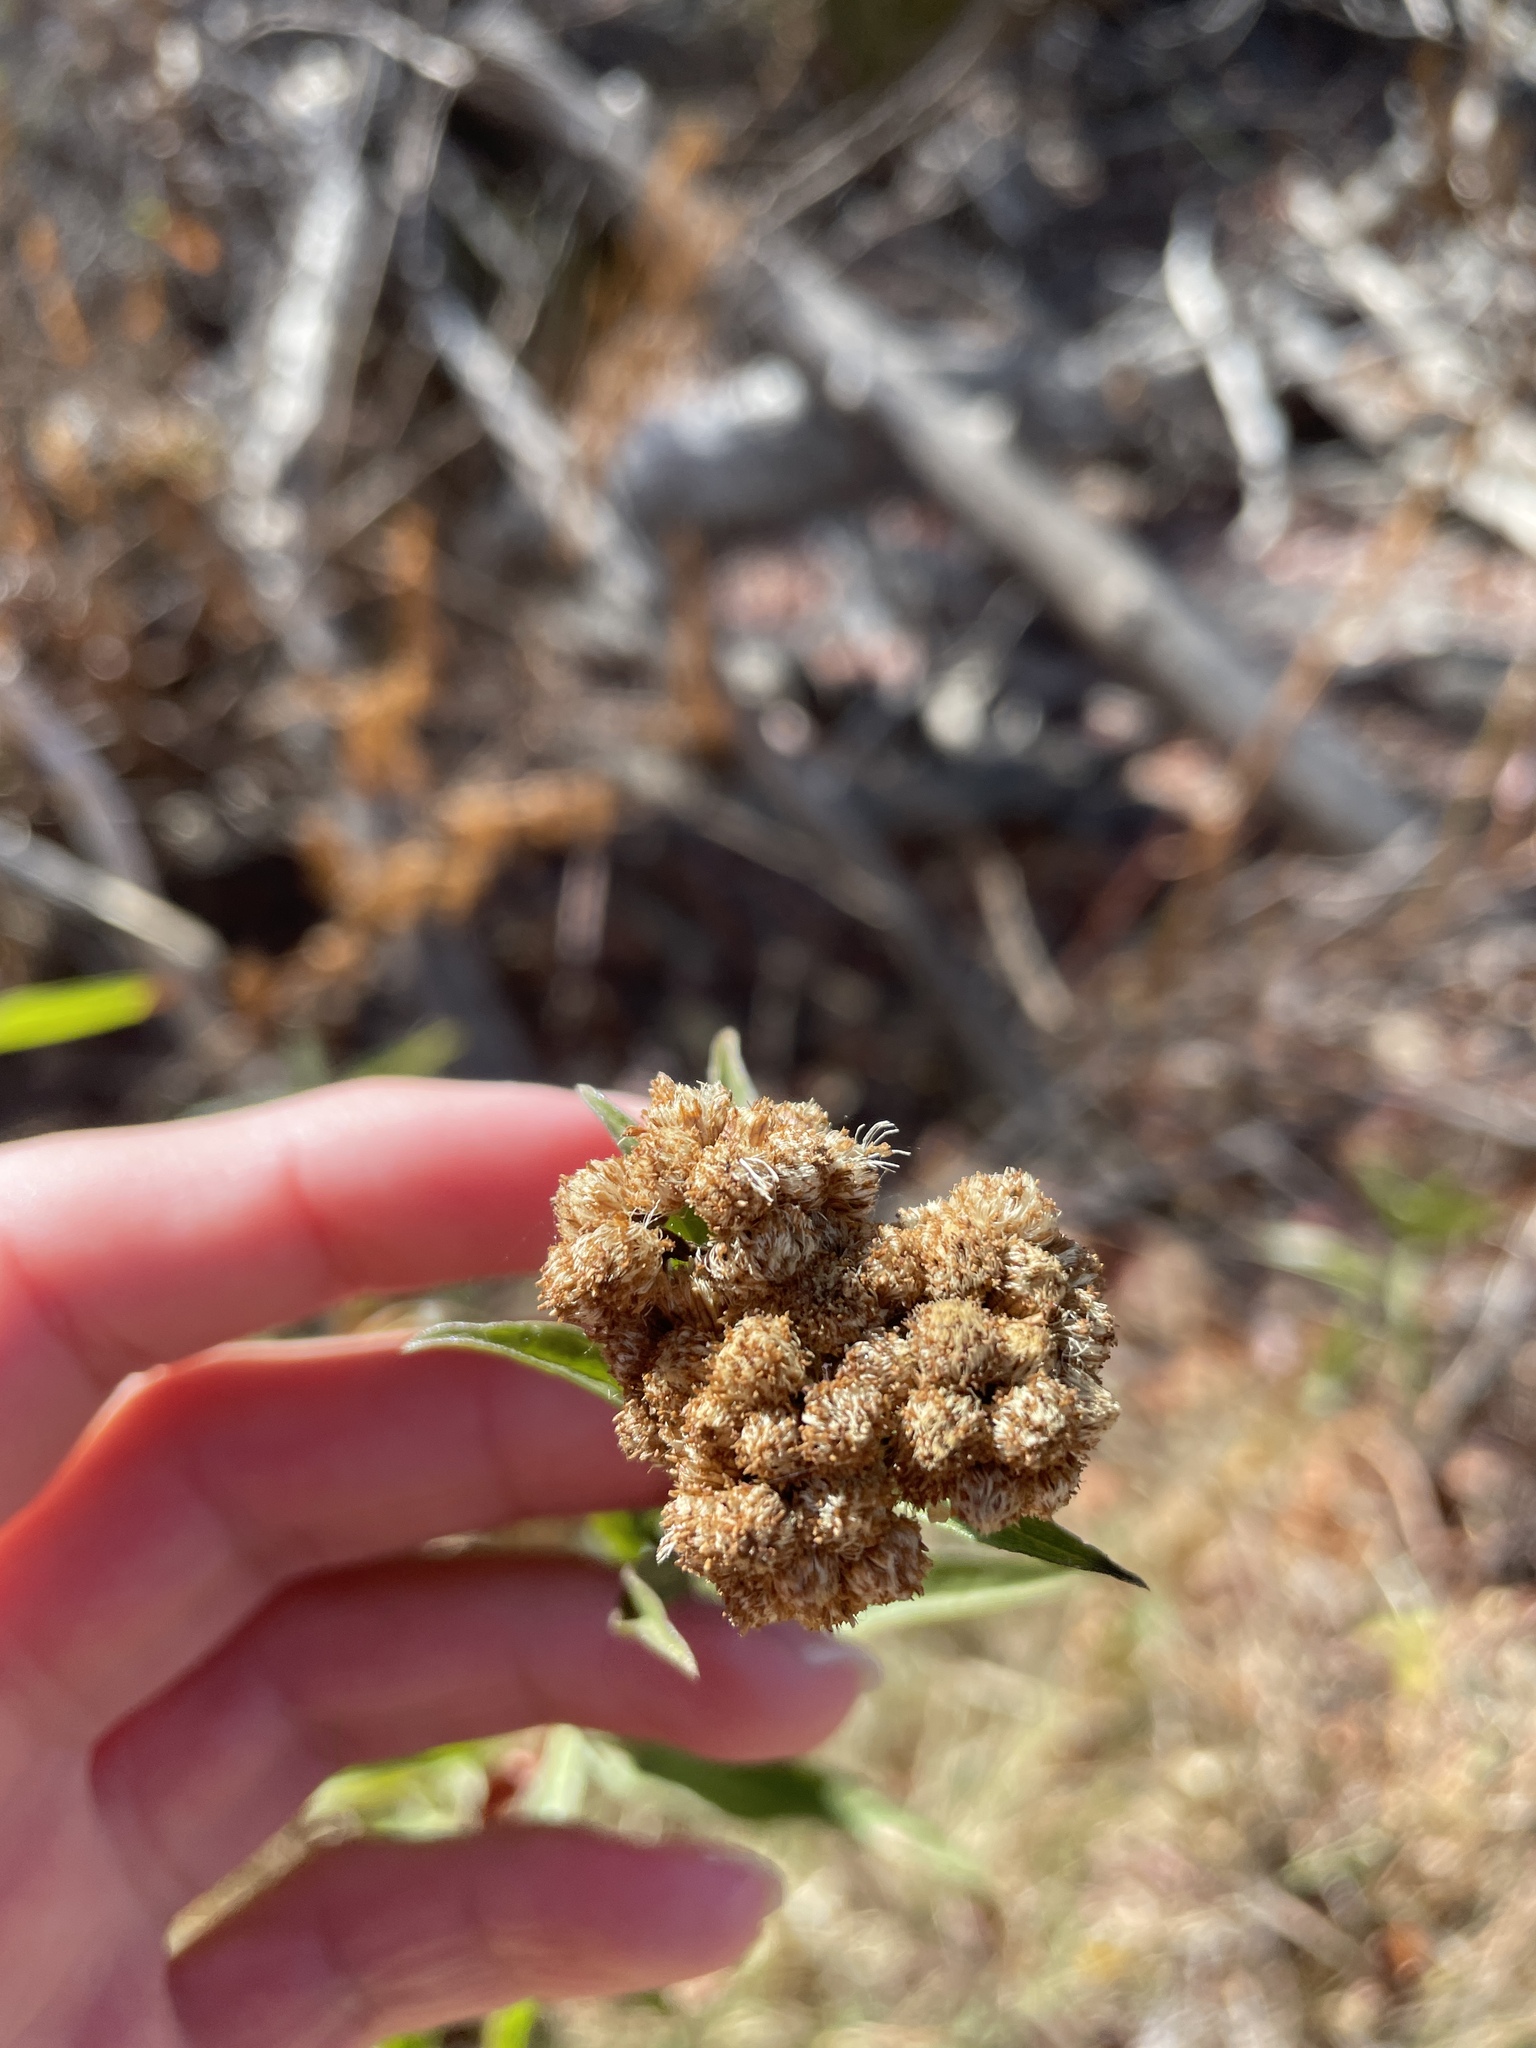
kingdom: Plantae
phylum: Tracheophyta
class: Magnoliopsida
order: Asterales
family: Asteraceae
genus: Baccharis
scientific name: Baccharis glutinosa
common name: Saltmarsh baccharis
